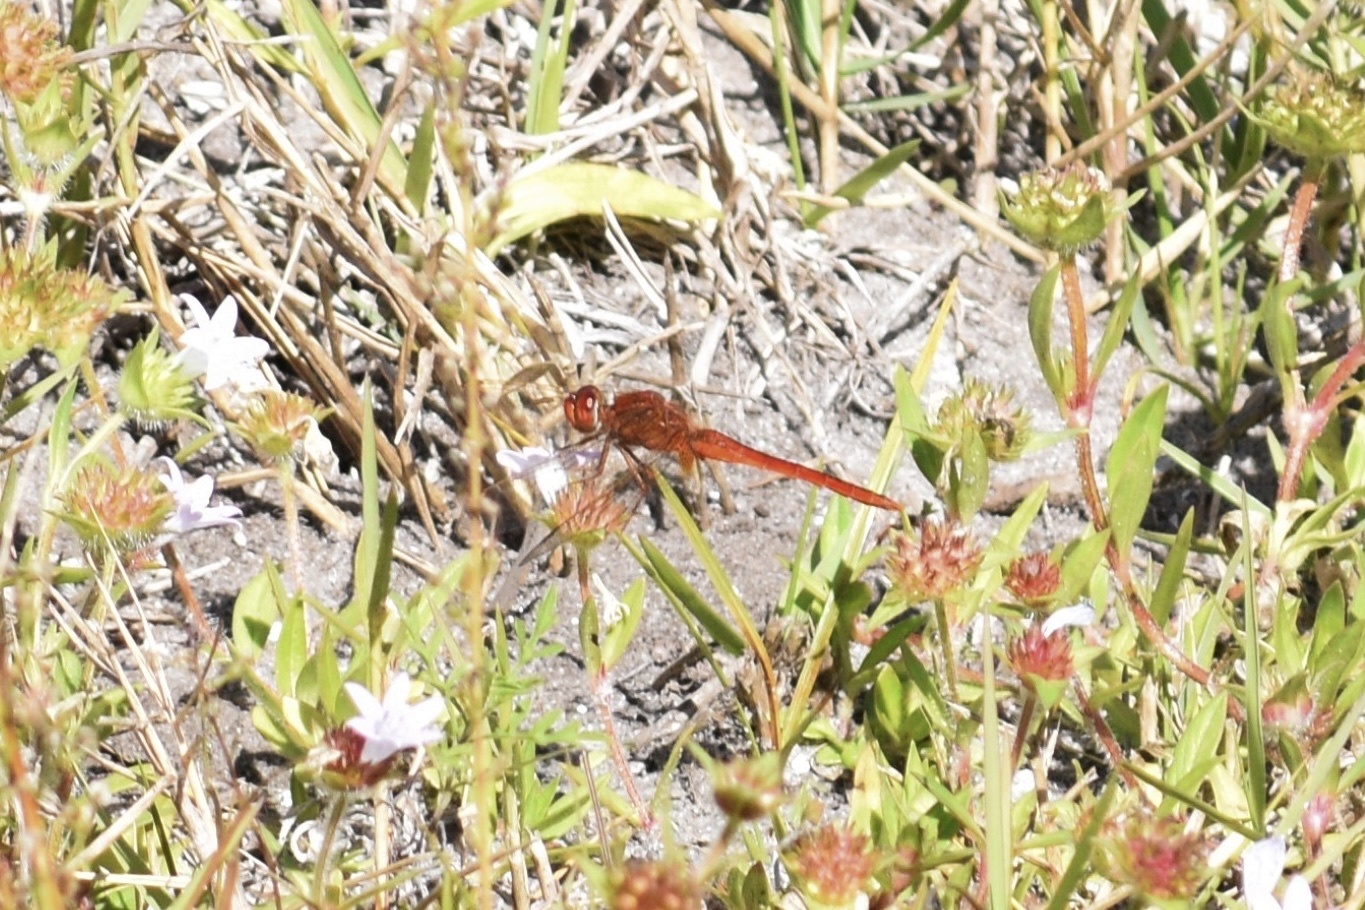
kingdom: Animalia
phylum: Arthropoda
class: Insecta
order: Odonata
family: Libellulidae
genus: Crocothemis
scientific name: Crocothemis servilia
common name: Scarlet skimmer
